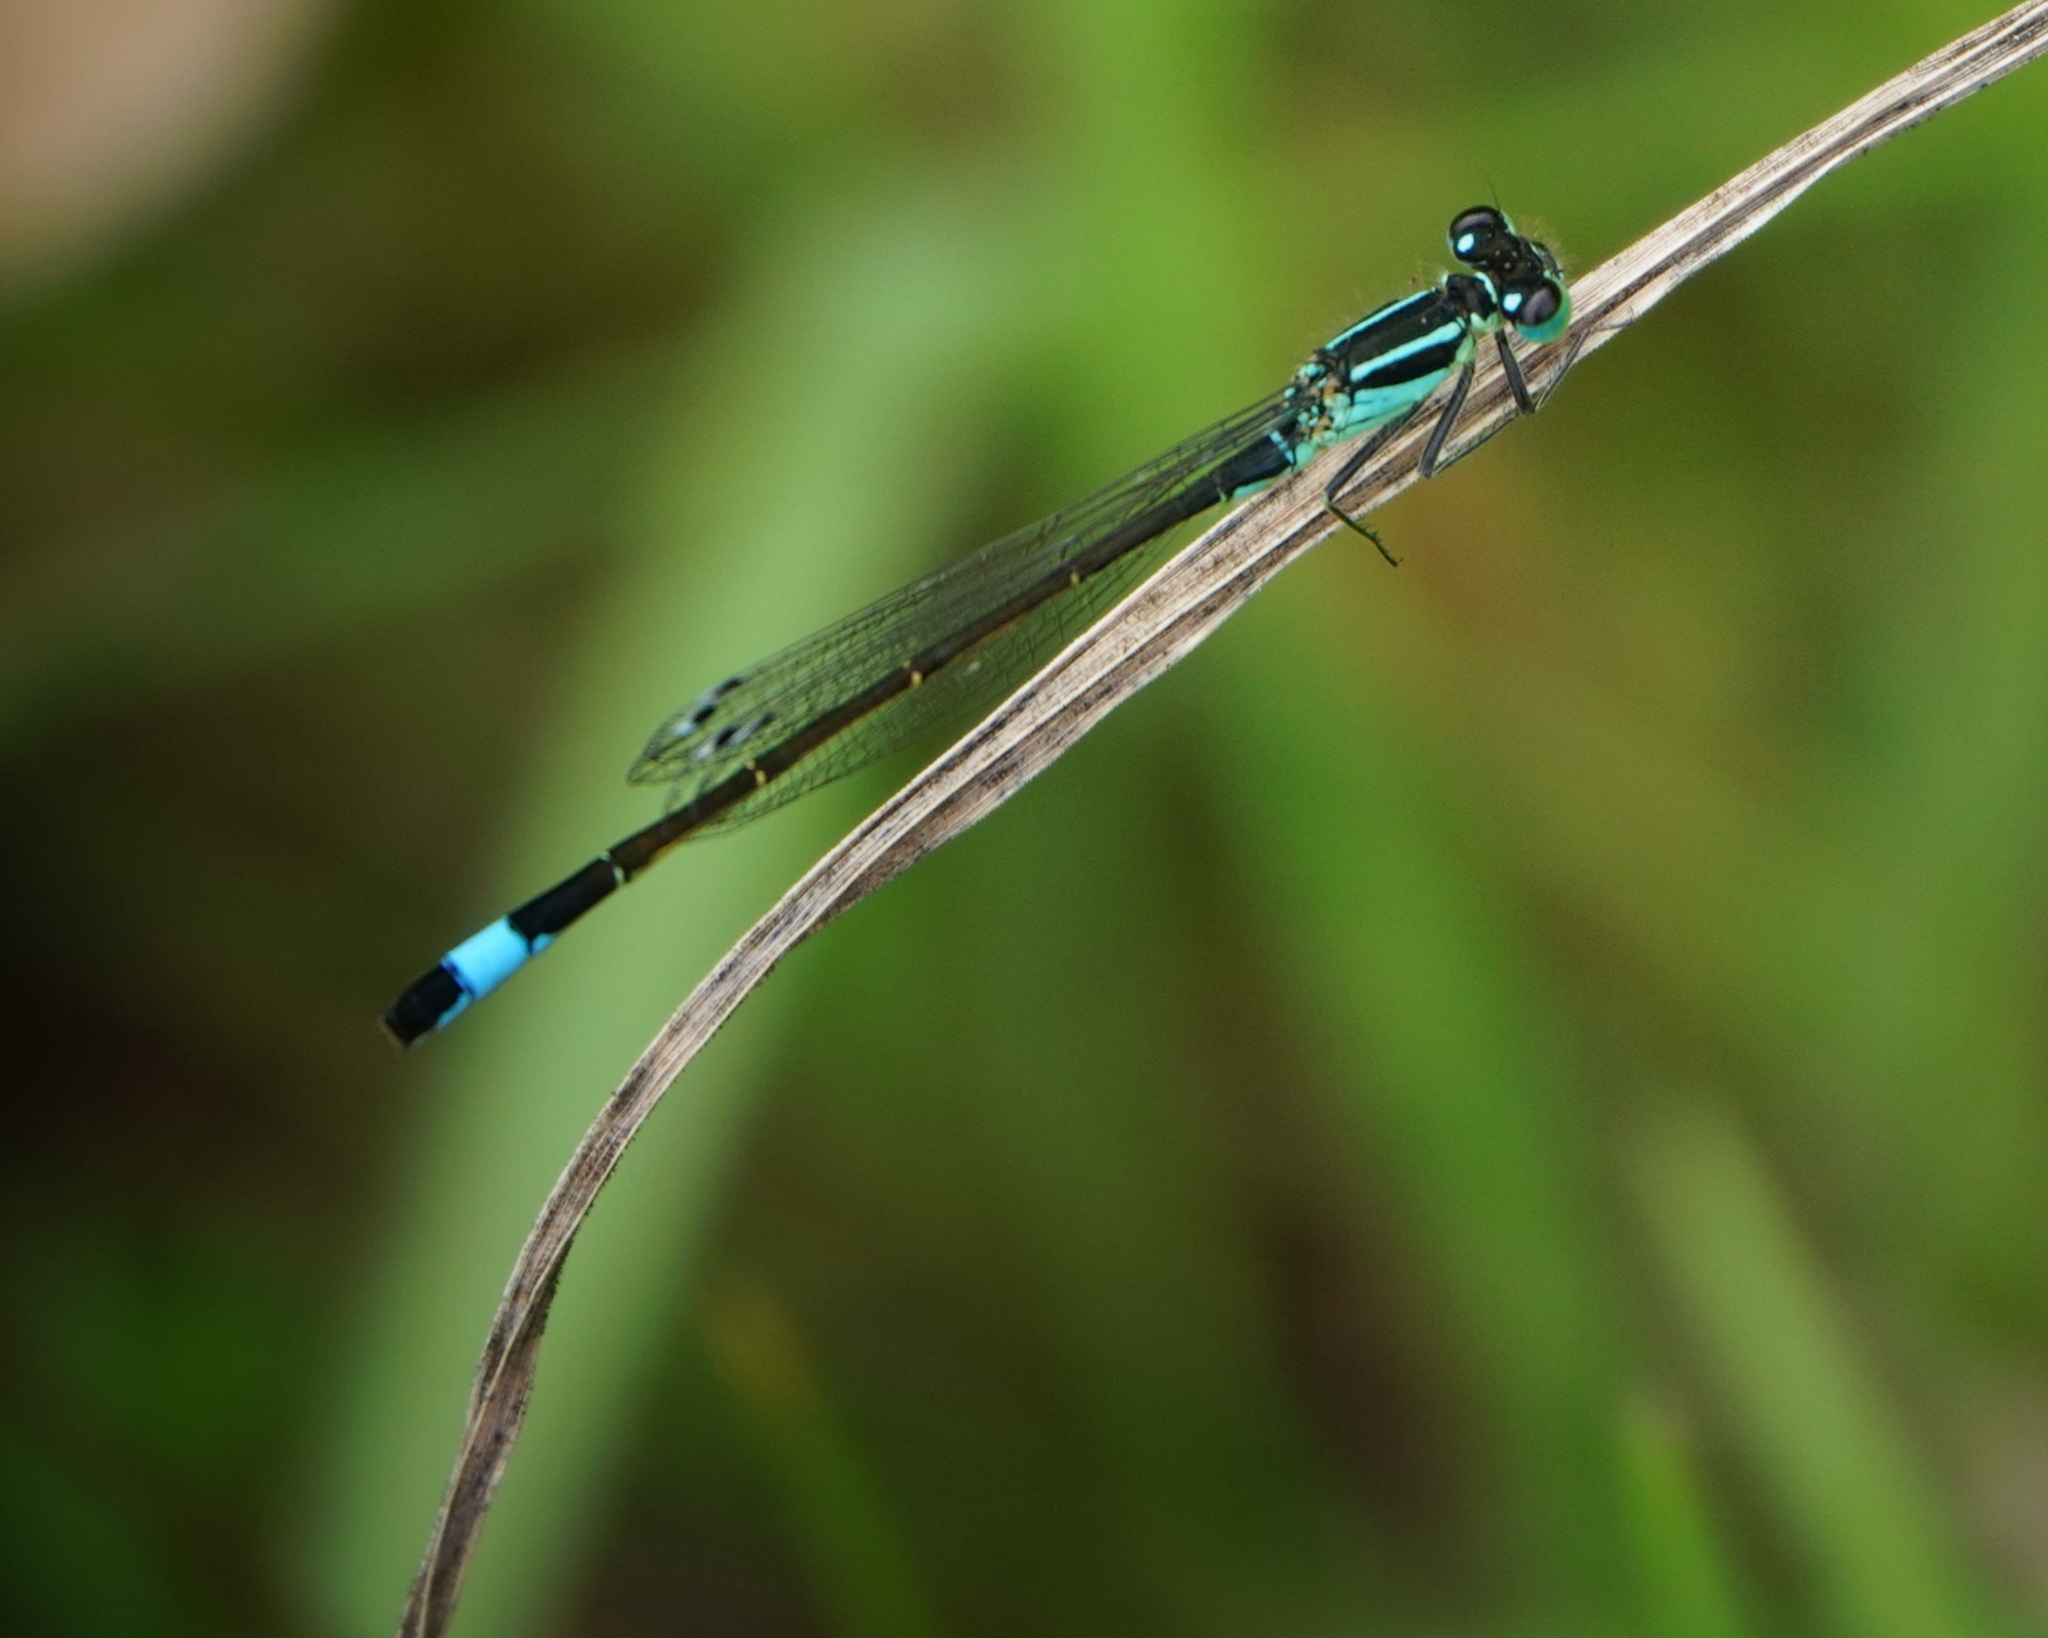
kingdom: Animalia
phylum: Arthropoda
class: Insecta
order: Odonata
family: Coenagrionidae
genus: Ischnura
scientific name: Ischnura elegans
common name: Blue-tailed damselfly
